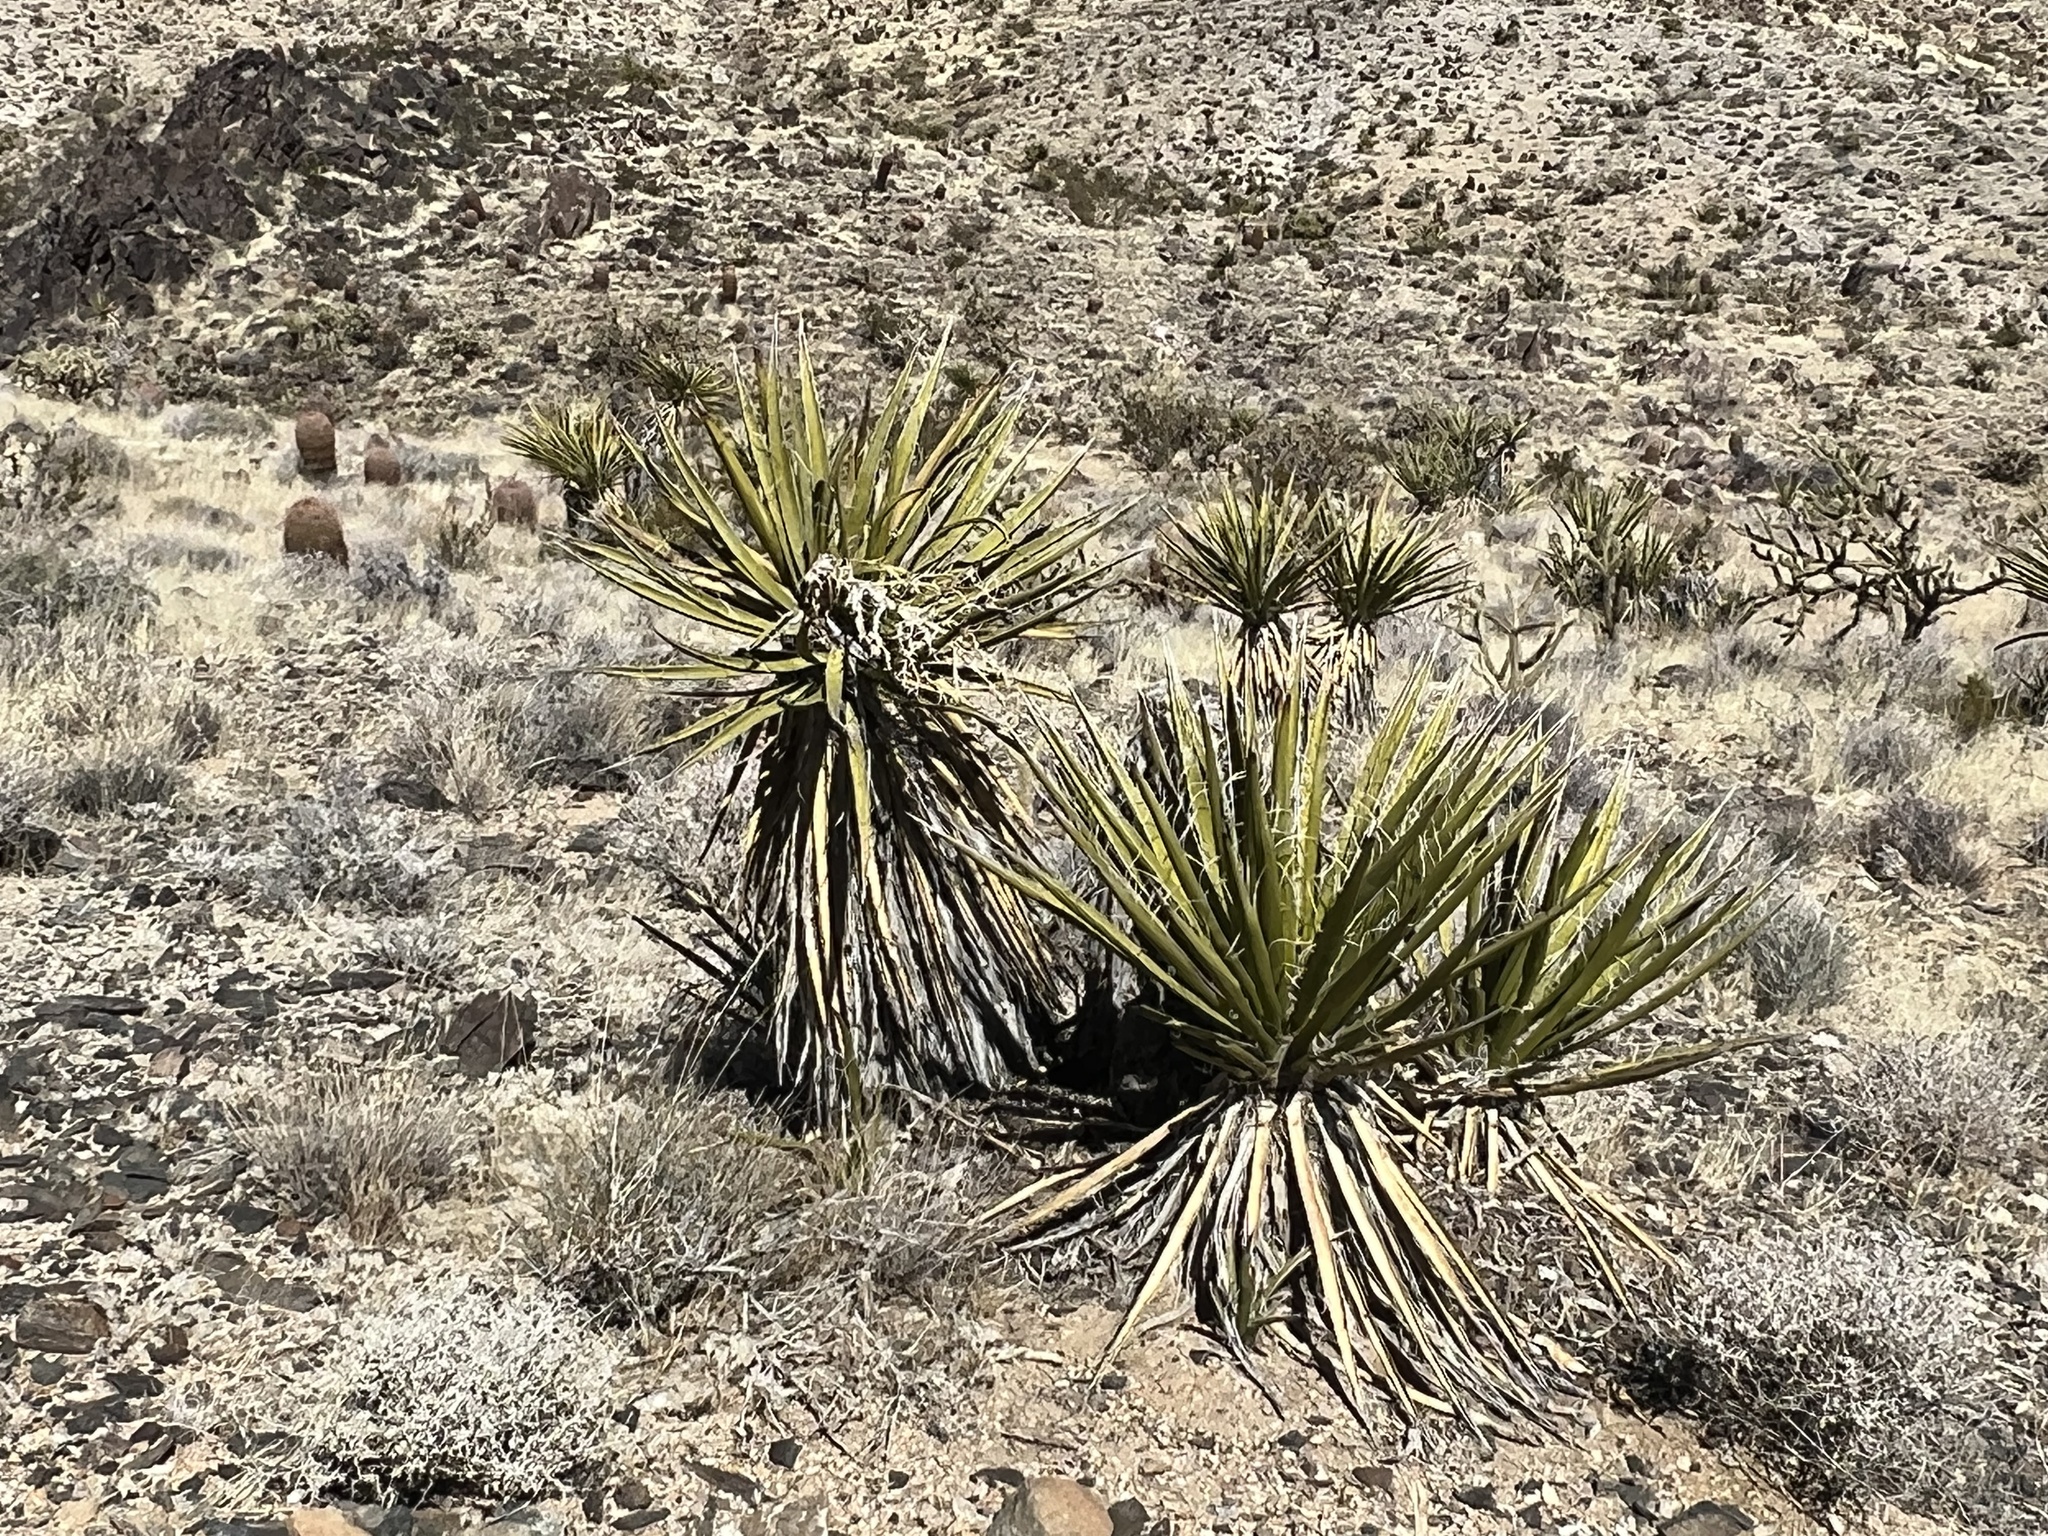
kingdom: Plantae
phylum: Tracheophyta
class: Liliopsida
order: Asparagales
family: Asparagaceae
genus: Yucca
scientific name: Yucca schidigera
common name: Mojave yucca
